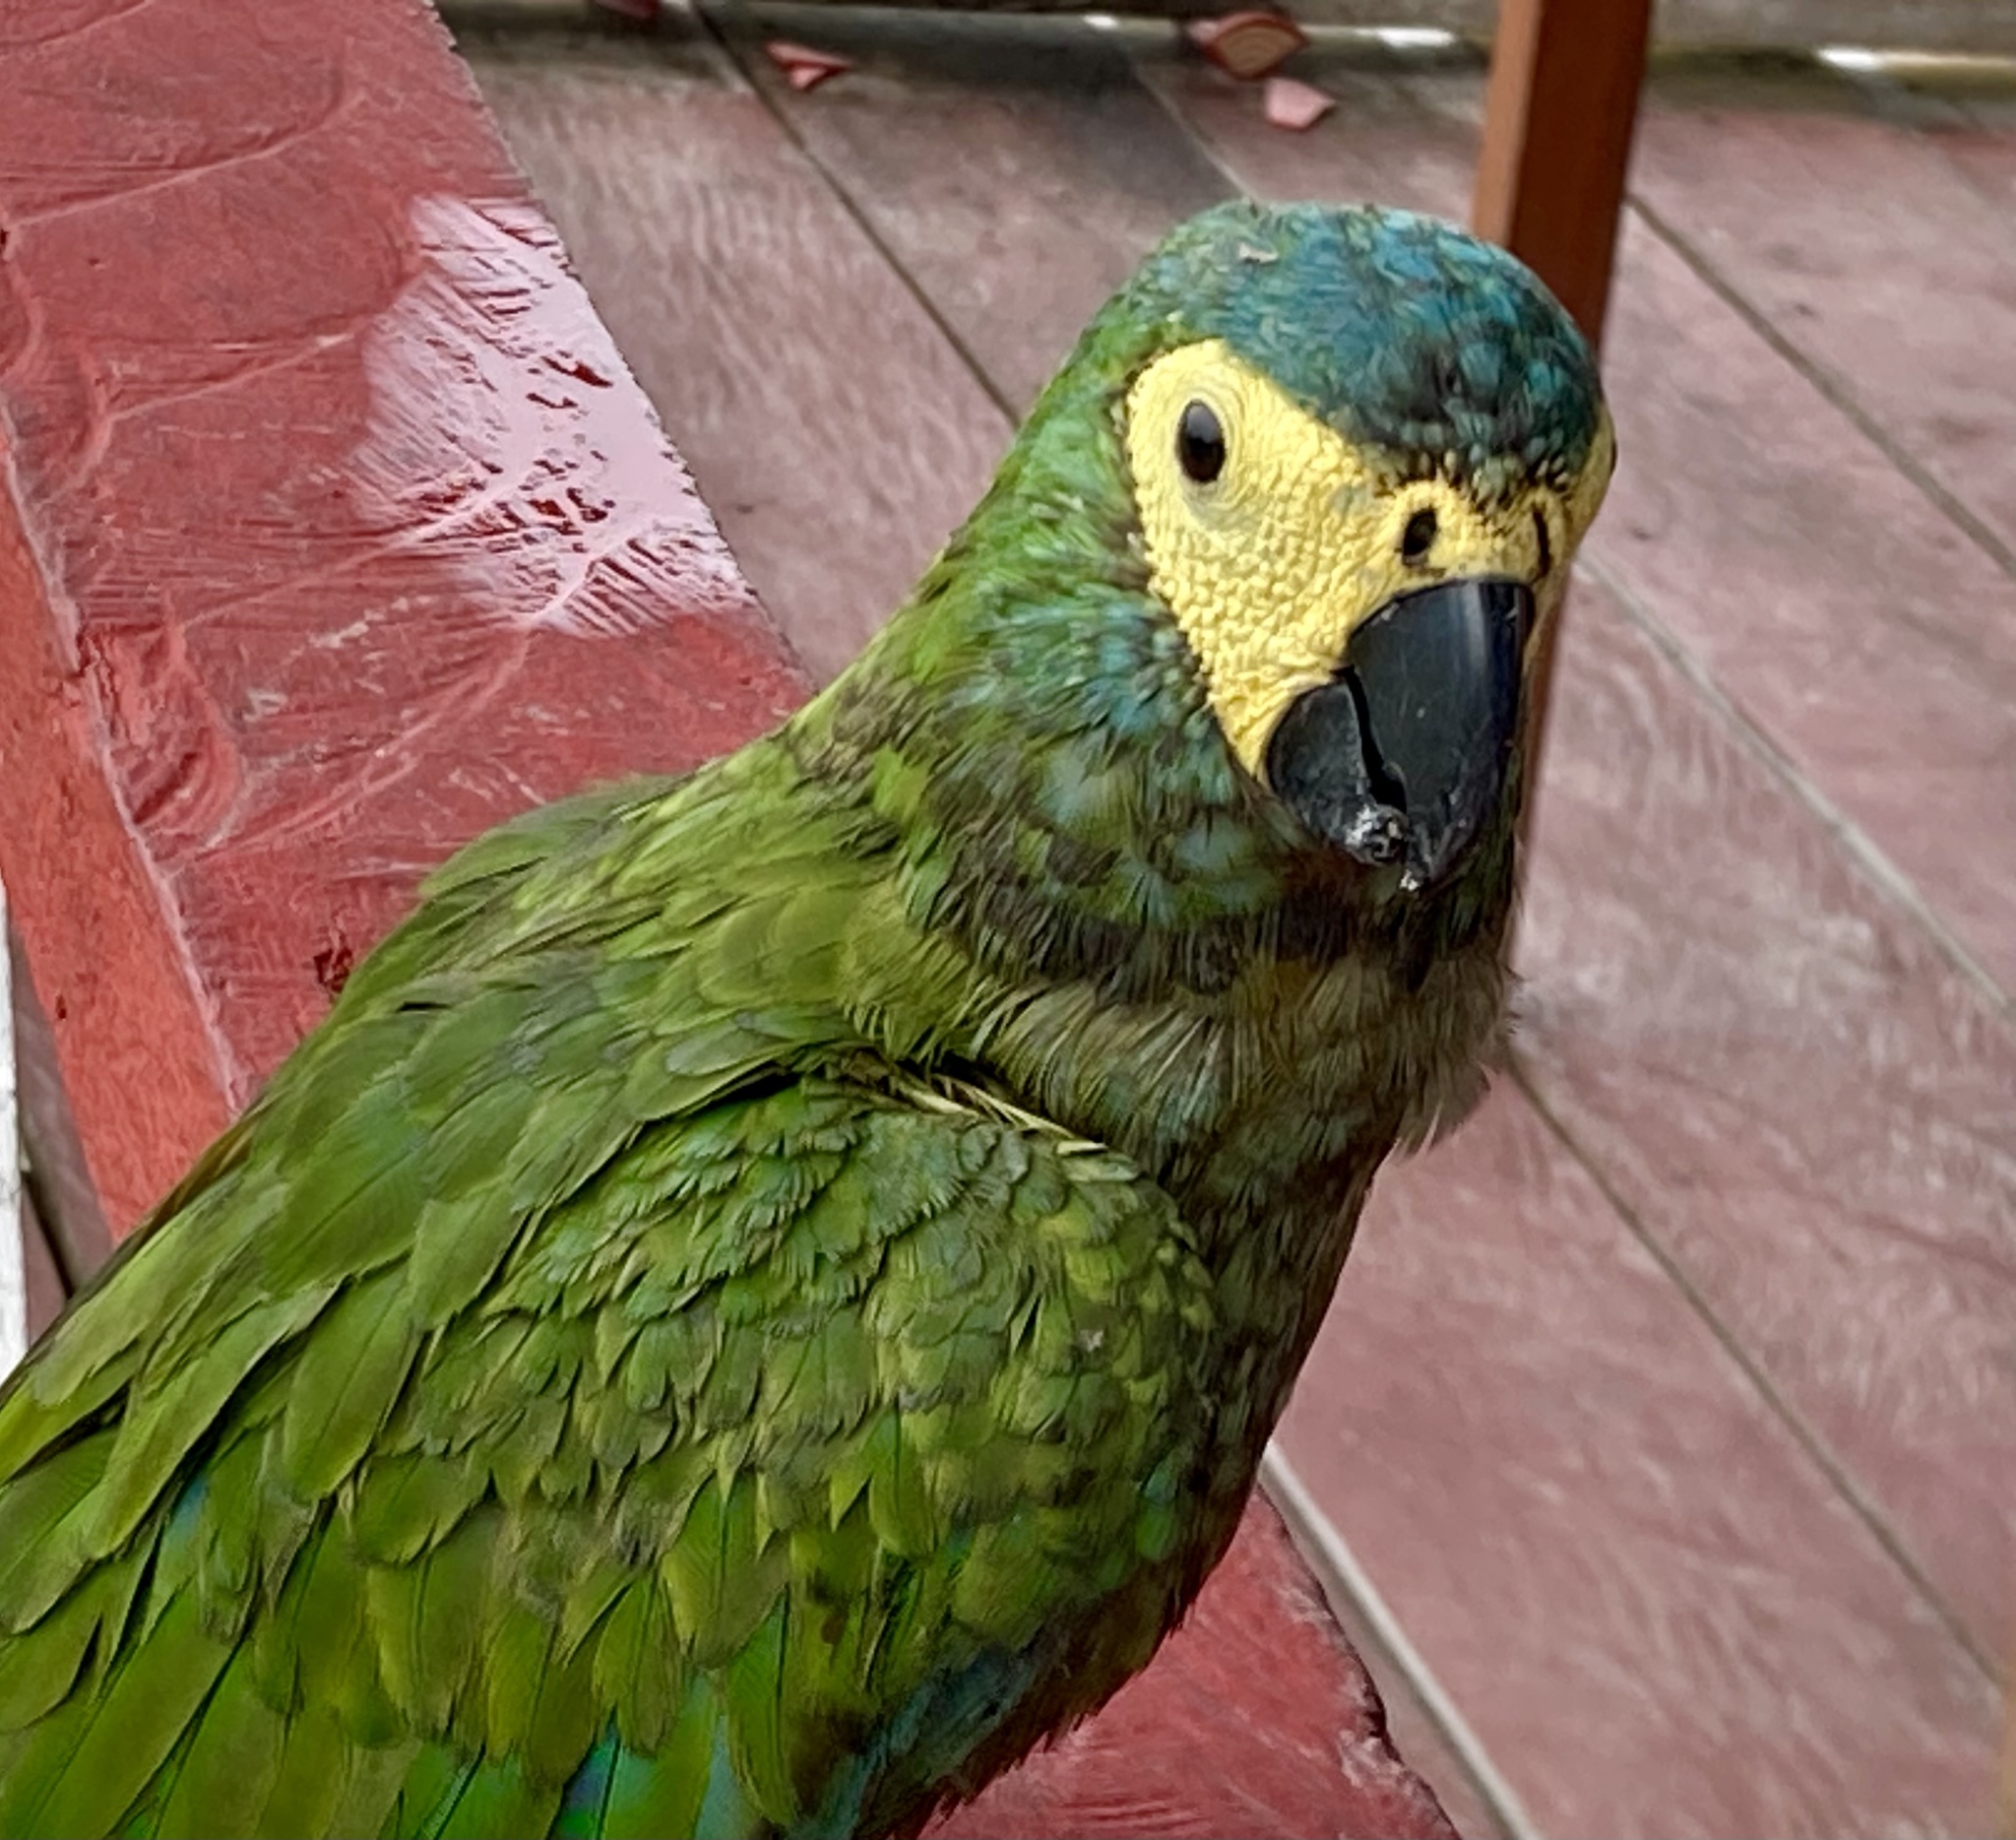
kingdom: Animalia
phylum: Chordata
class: Aves
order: Psittaciformes
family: Psittacidae
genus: Orthopsittaca
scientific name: Orthopsittaca manilata
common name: Red-bellied macaw
